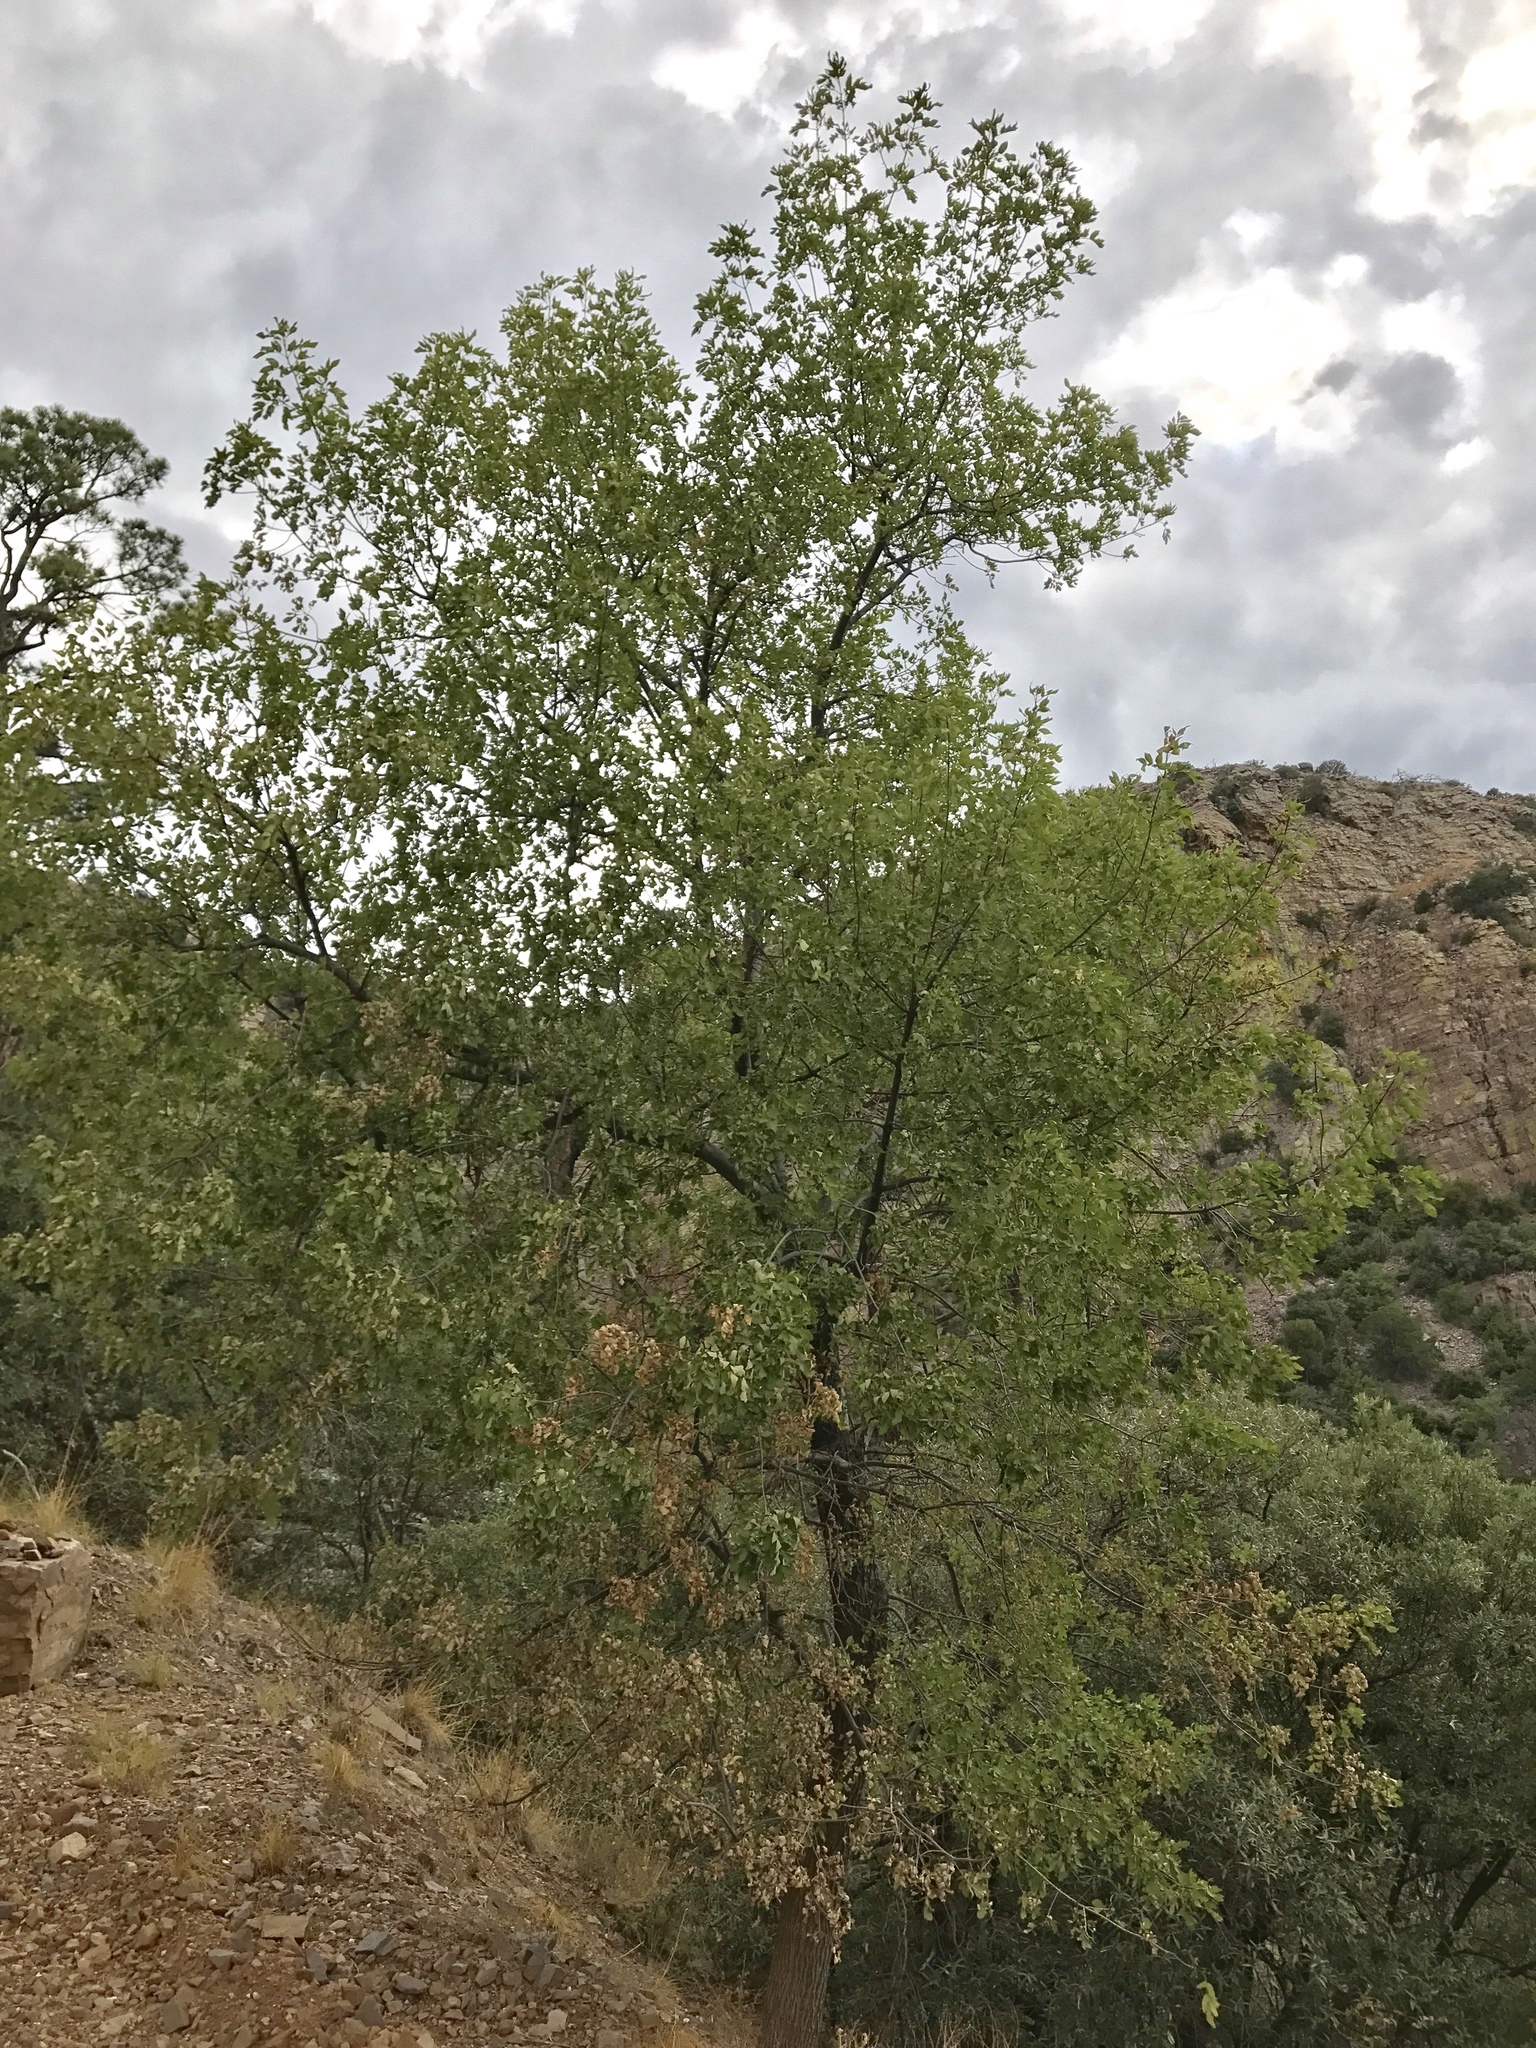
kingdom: Plantae
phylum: Tracheophyta
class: Magnoliopsida
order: Lamiales
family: Oleaceae
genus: Fraxinus
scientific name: Fraxinus velutina
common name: Arizon ash
